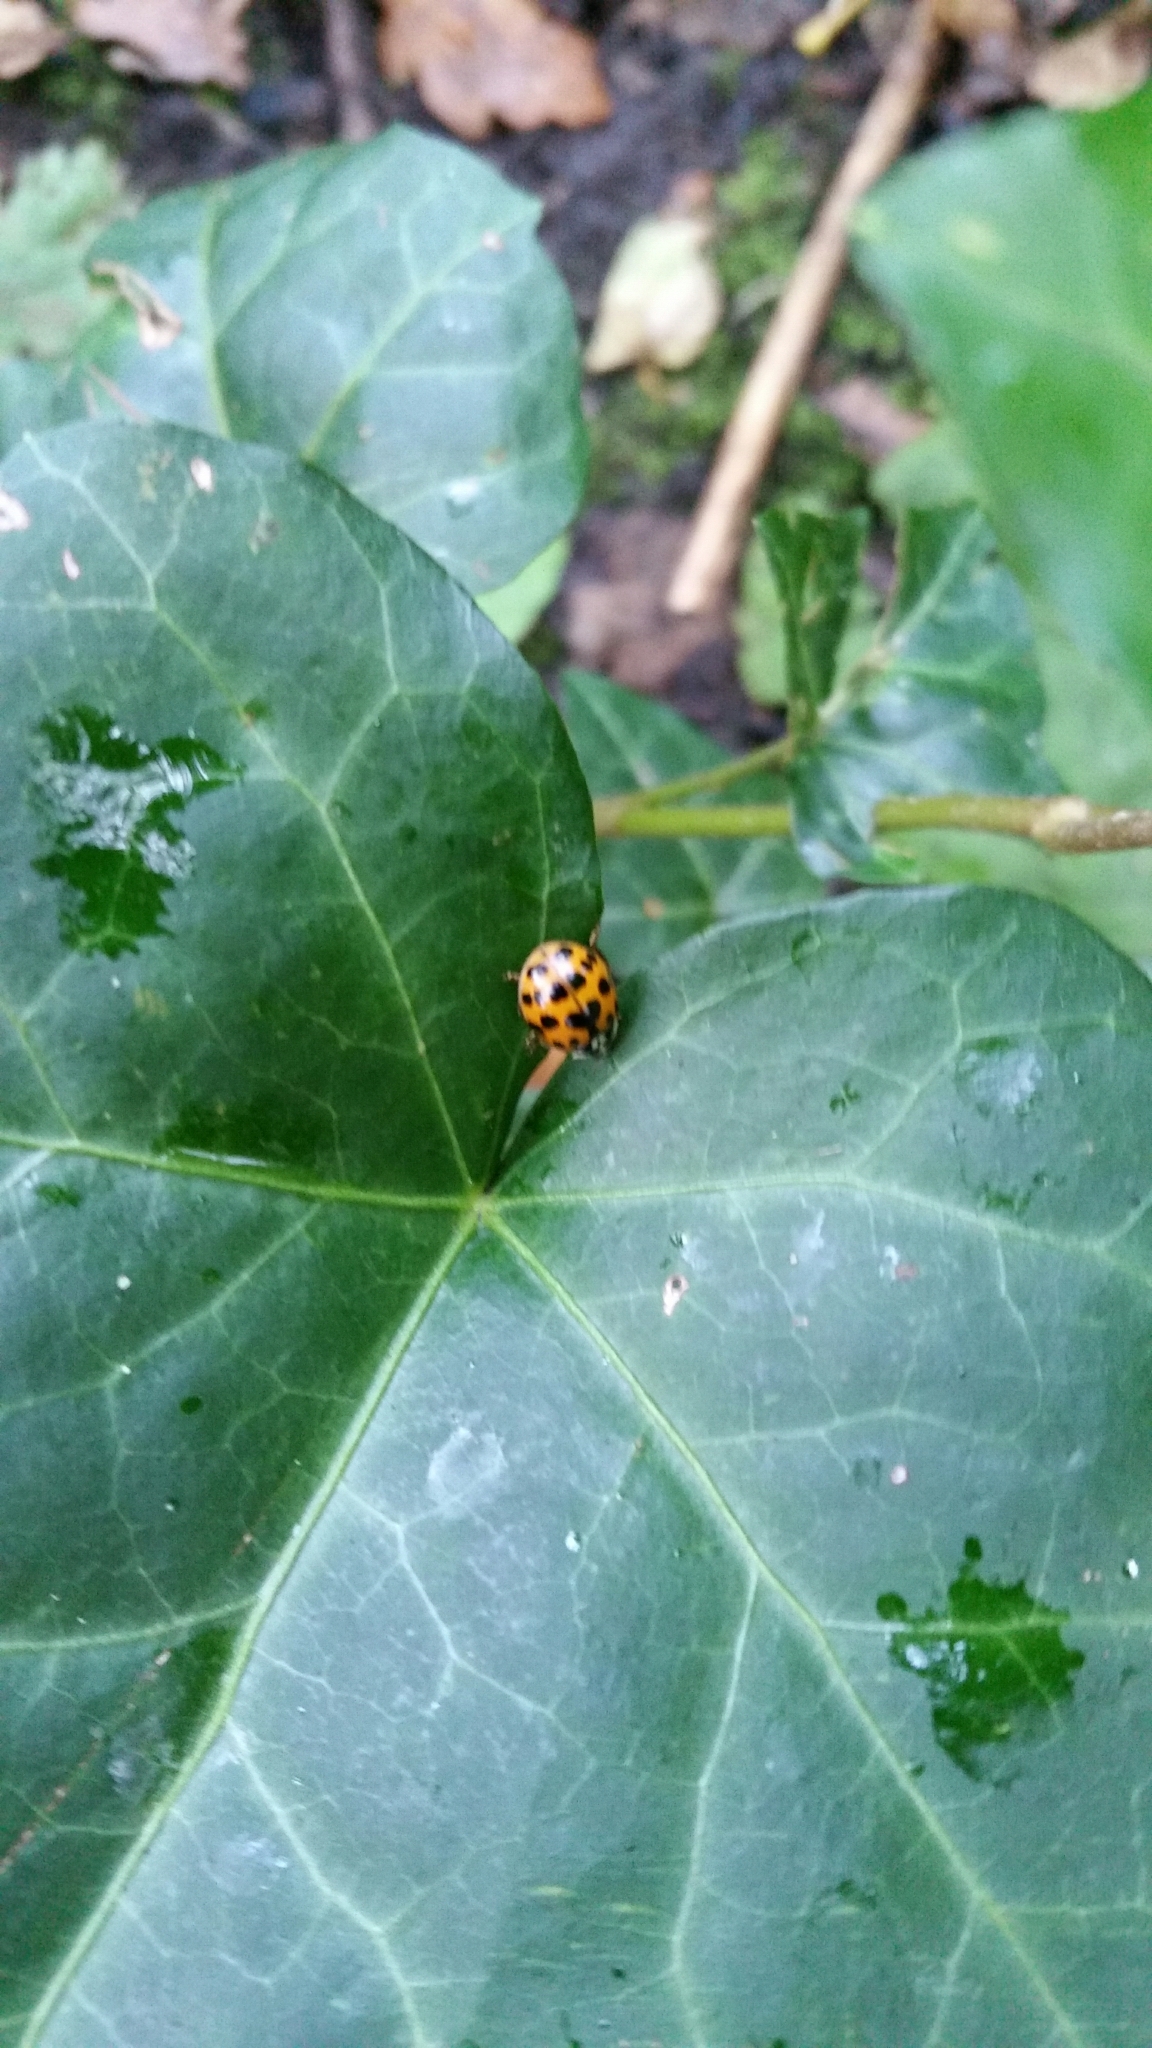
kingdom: Animalia
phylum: Arthropoda
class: Insecta
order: Coleoptera
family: Coccinellidae
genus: Harmonia
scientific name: Harmonia axyridis
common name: Harlequin ladybird
